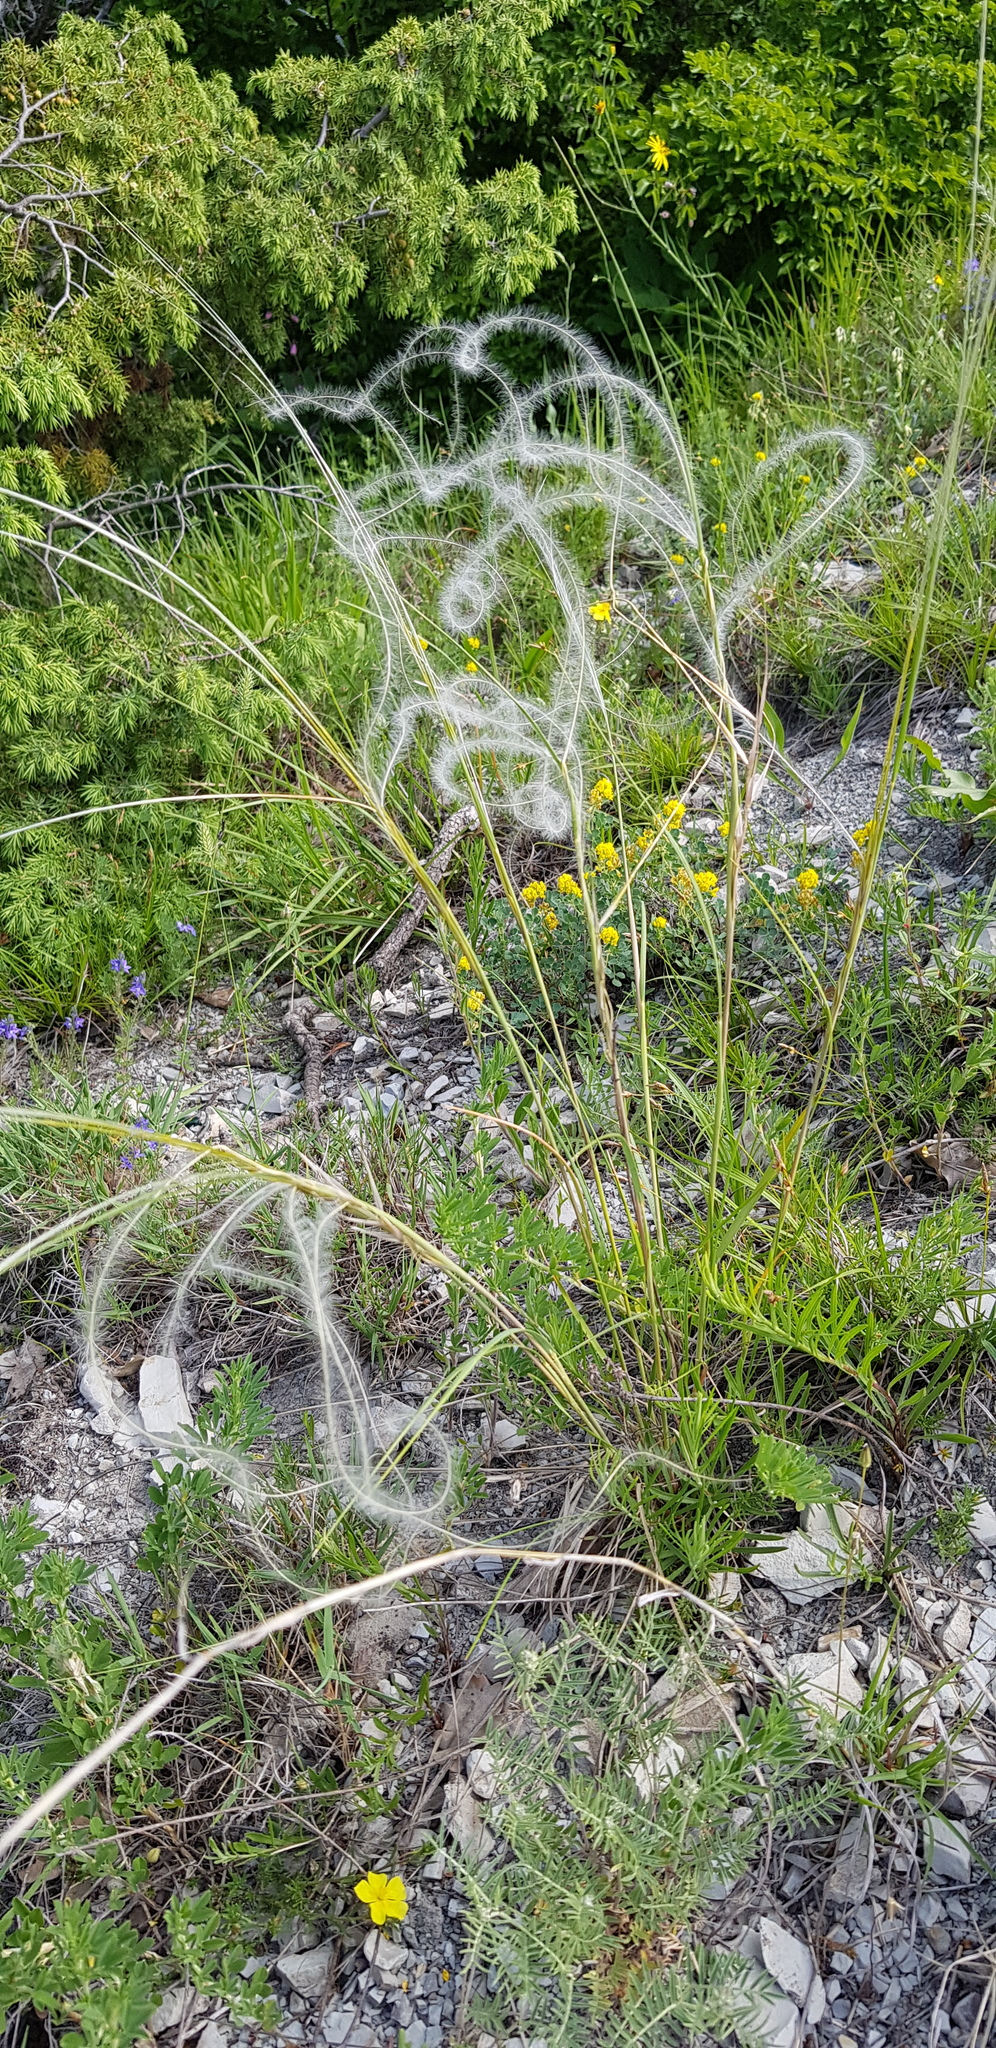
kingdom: Plantae
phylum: Tracheophyta
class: Liliopsida
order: Poales
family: Poaceae
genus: Stipa
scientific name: Stipa
